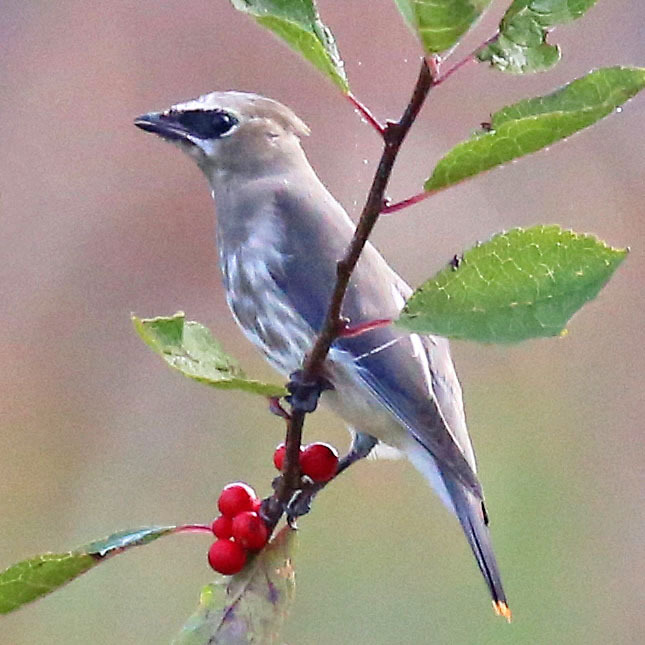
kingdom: Animalia
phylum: Chordata
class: Aves
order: Passeriformes
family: Bombycillidae
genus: Bombycilla
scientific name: Bombycilla cedrorum
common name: Cedar waxwing
